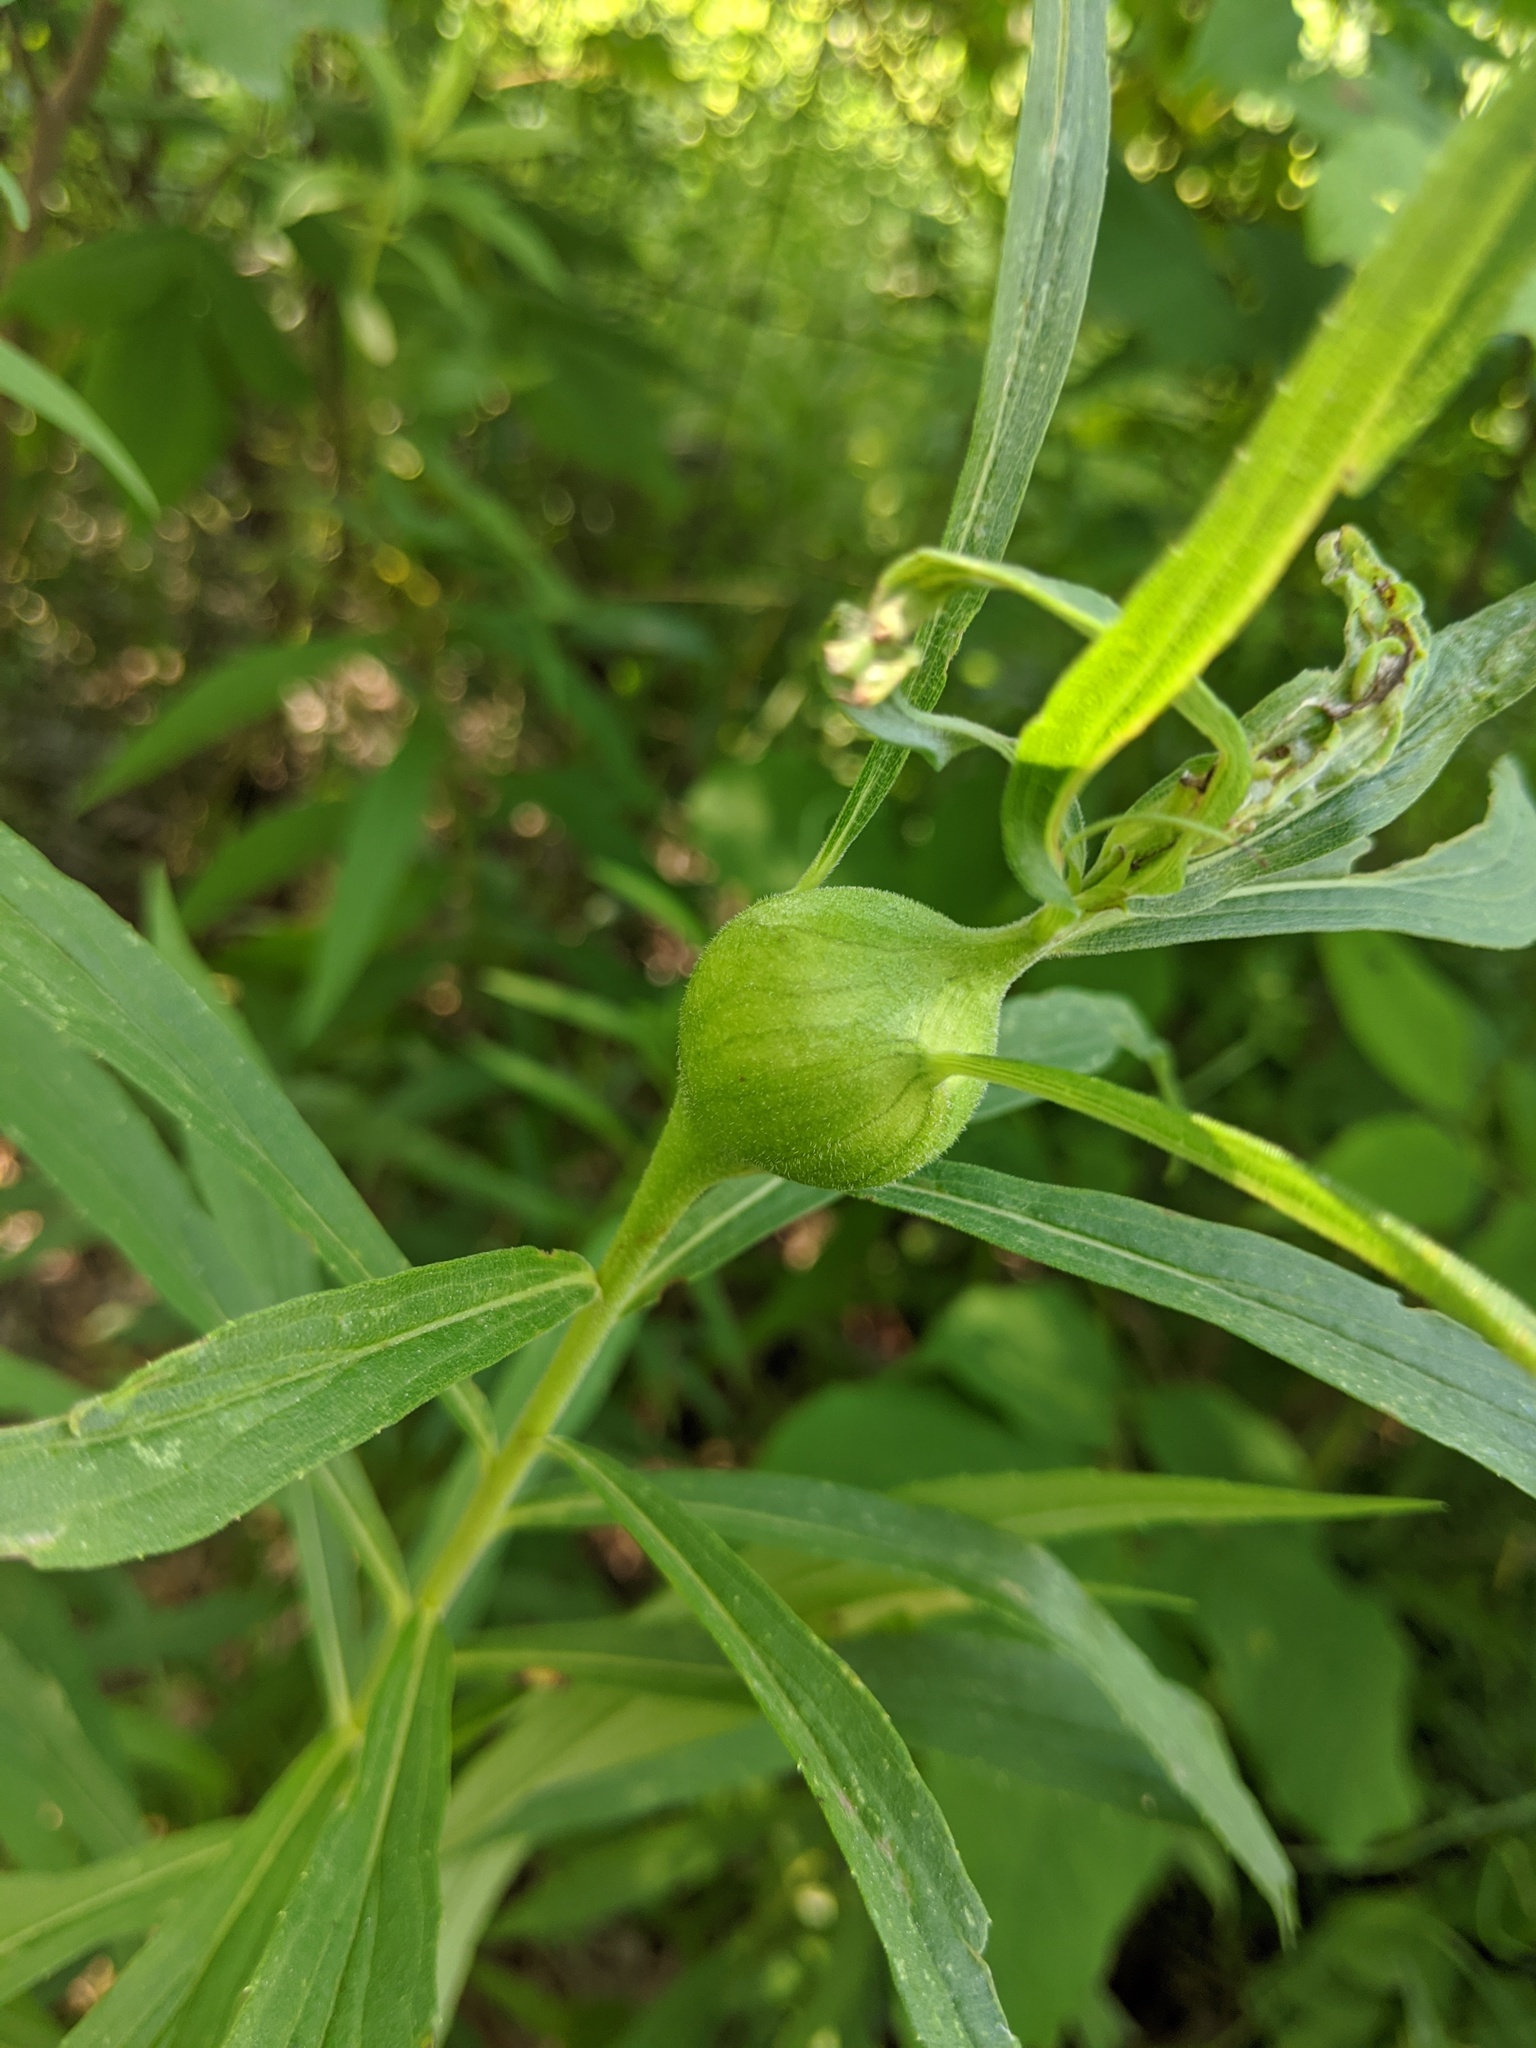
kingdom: Animalia
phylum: Arthropoda
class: Insecta
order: Diptera
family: Tephritidae
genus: Eurosta
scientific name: Eurosta solidaginis
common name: Goldenrod gall fly
